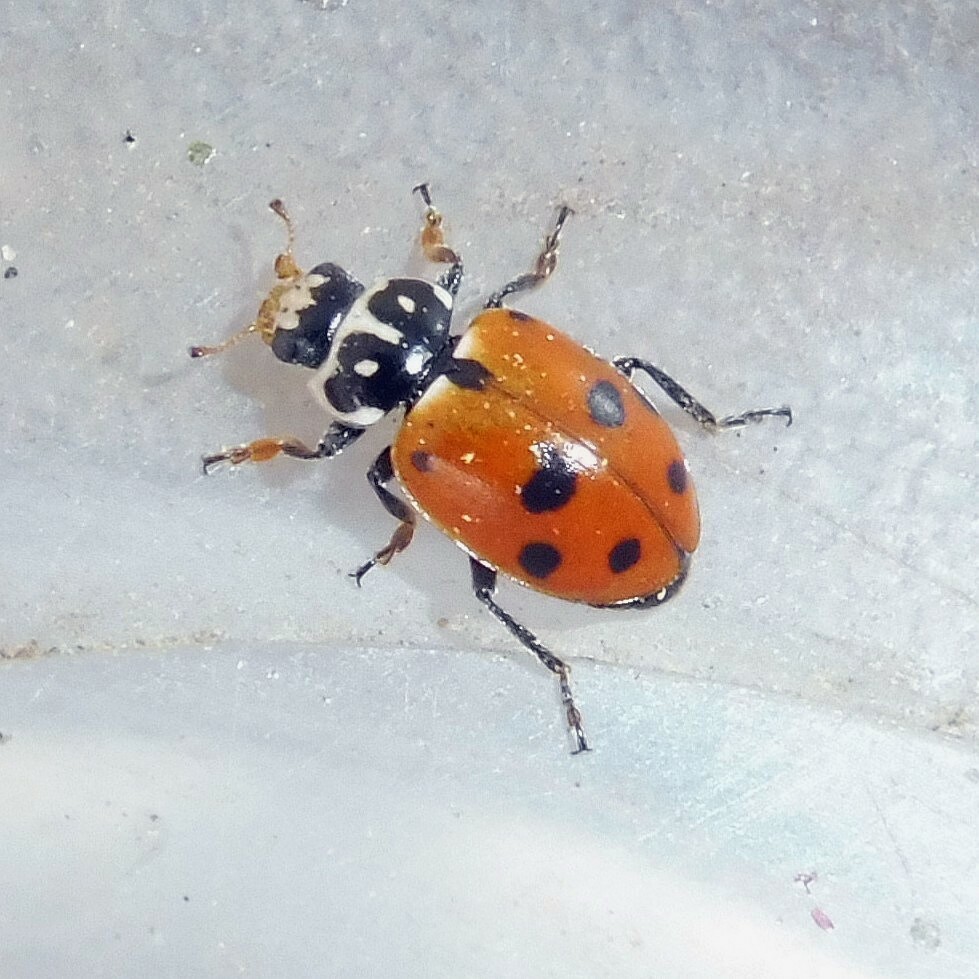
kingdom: Animalia
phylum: Arthropoda
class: Insecta
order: Coleoptera
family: Coccinellidae
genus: Hippodamia
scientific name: Hippodamia variegata
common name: Ladybird beetle
